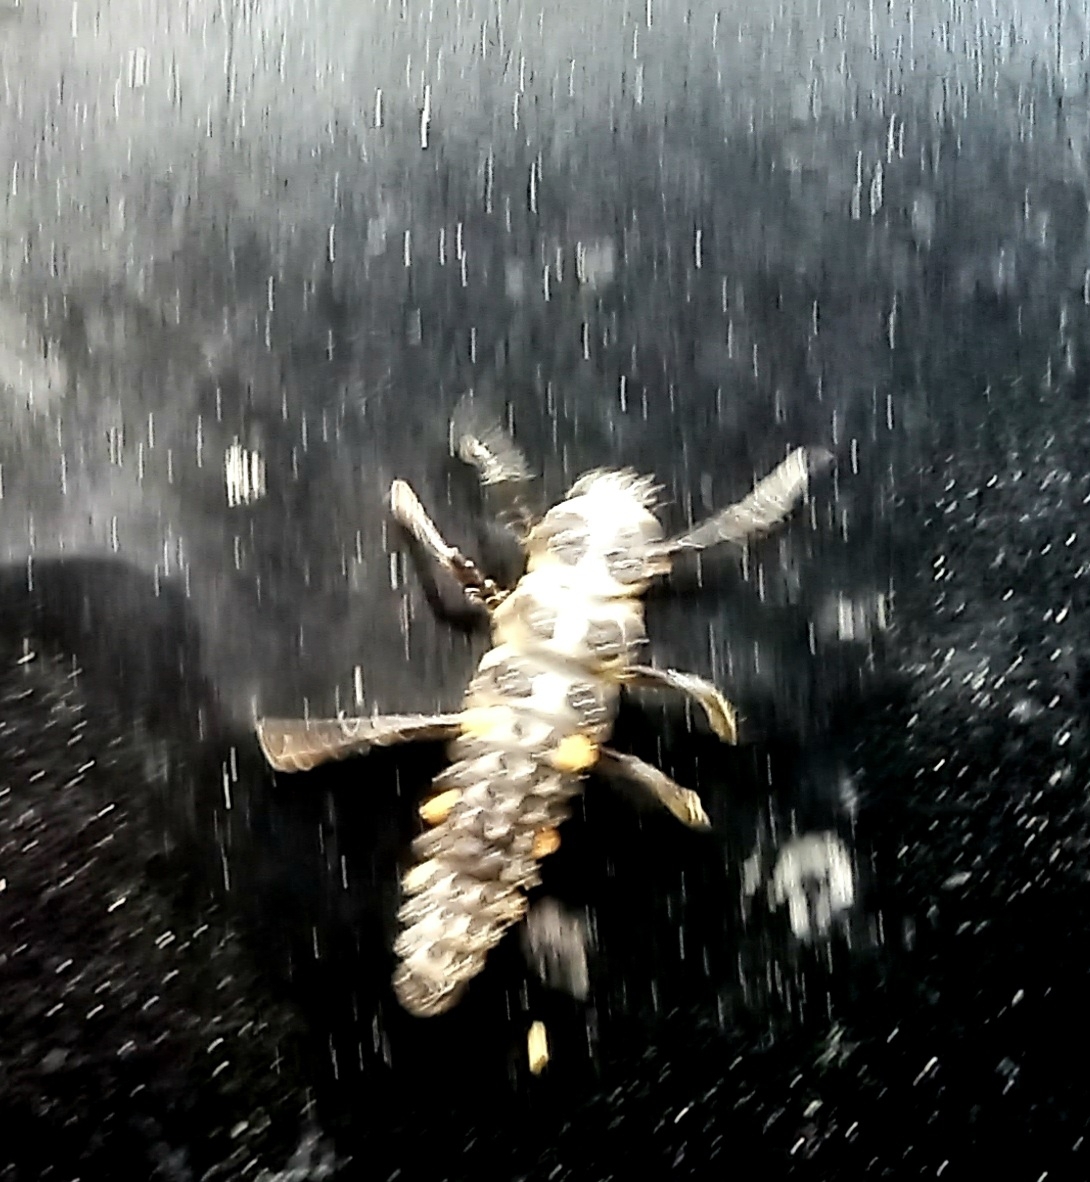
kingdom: Animalia
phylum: Arthropoda
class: Insecta
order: Coleoptera
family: Coccinellidae
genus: Myzia
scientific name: Myzia oblongoguttata
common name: Striped ladybird
